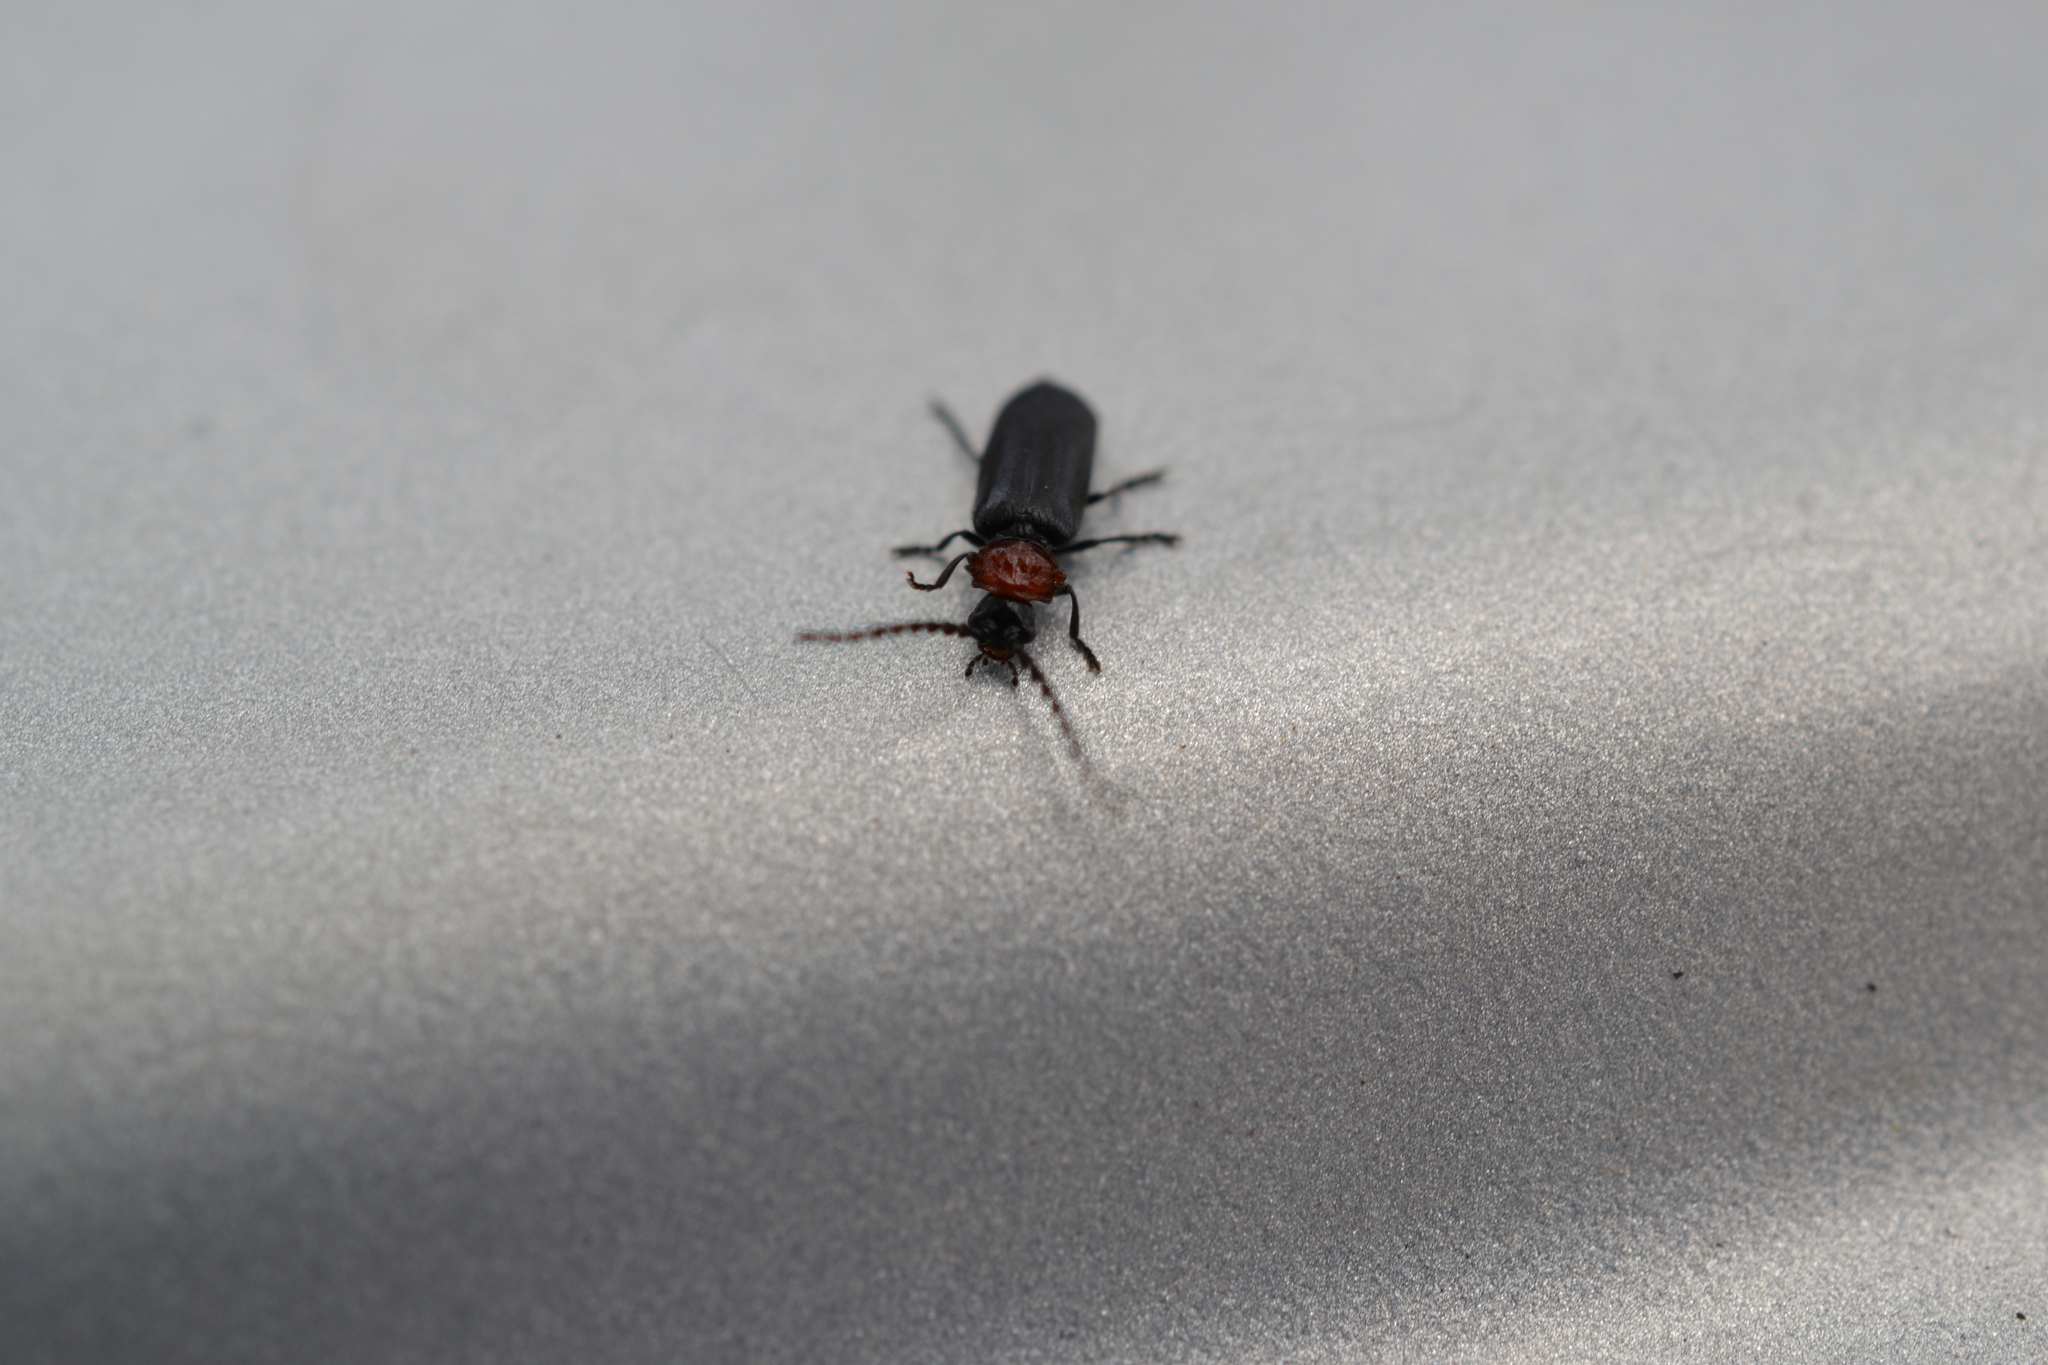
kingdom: Animalia
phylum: Arthropoda
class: Insecta
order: Coleoptera
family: Cantharidae
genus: Ditemnus
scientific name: Ditemnus latilobus
